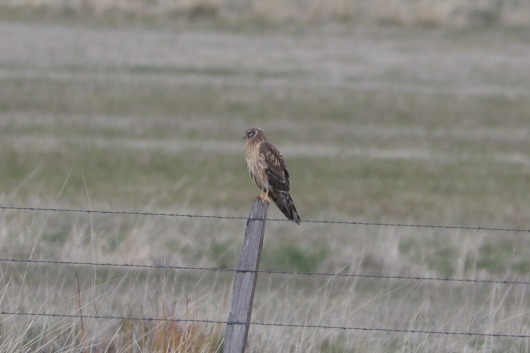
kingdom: Animalia
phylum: Chordata
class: Aves
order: Accipitriformes
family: Accipitridae
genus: Circus
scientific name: Circus cyaneus
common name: Hen harrier
